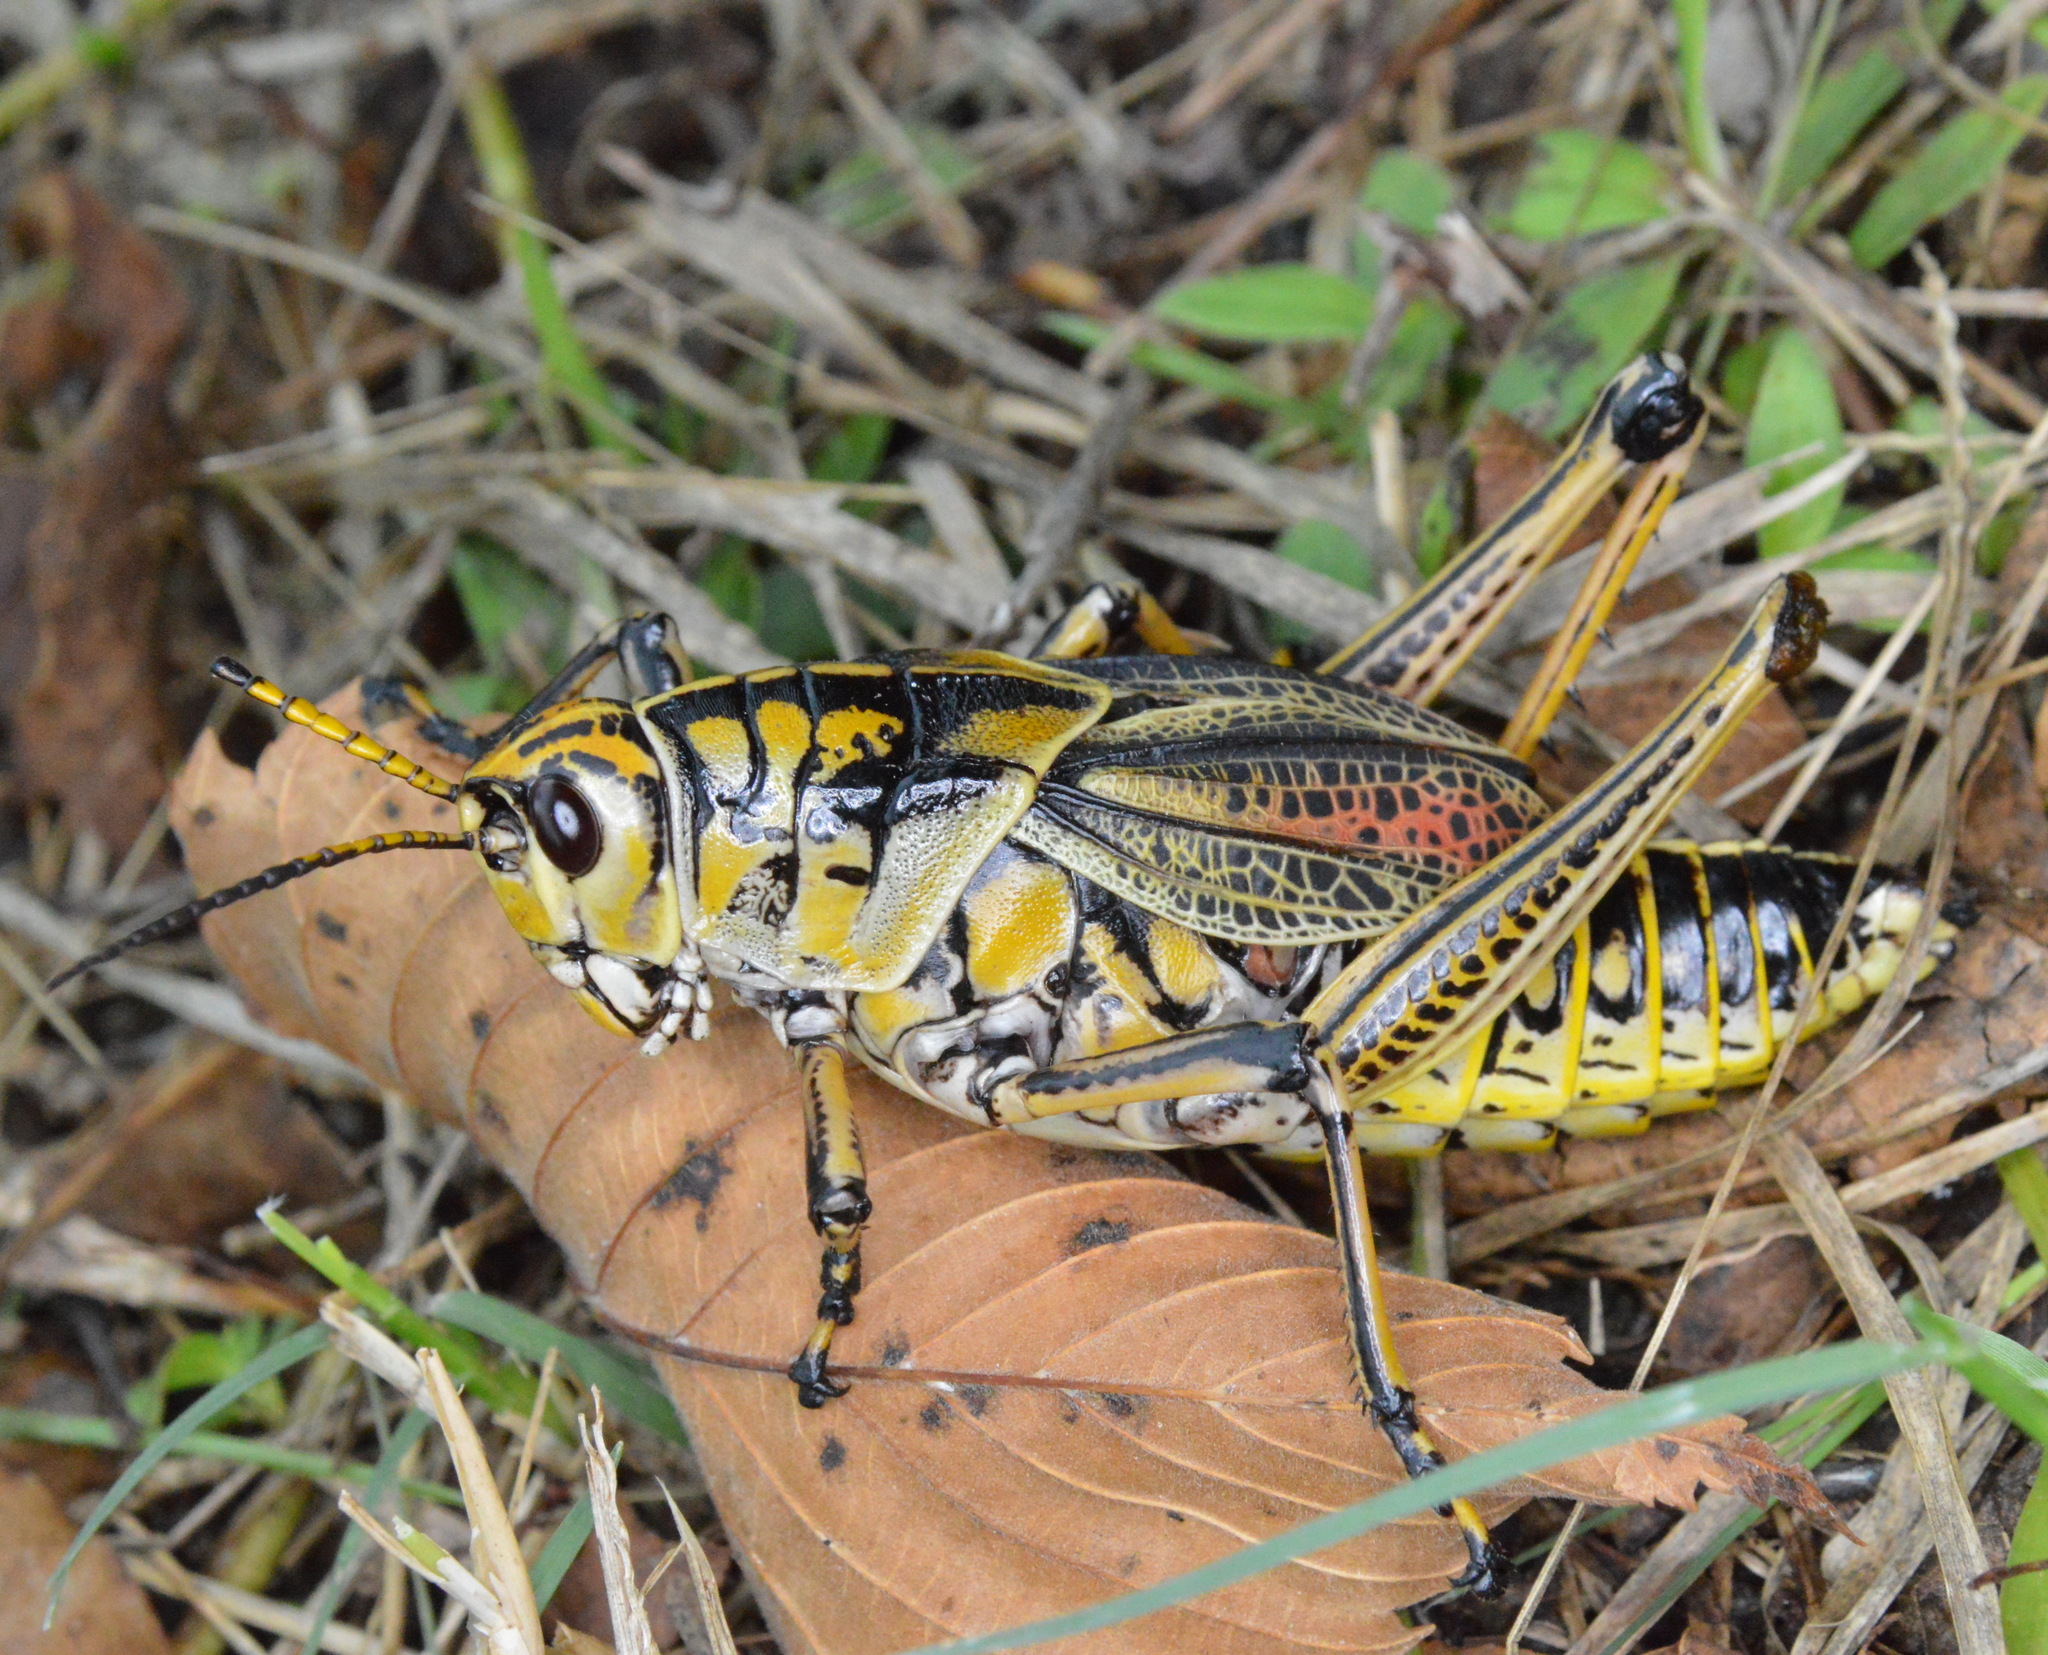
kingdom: Animalia
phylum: Arthropoda
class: Insecta
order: Orthoptera
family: Romaleidae
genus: Romalea
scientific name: Romalea microptera
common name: Eastern lubber grasshopper
